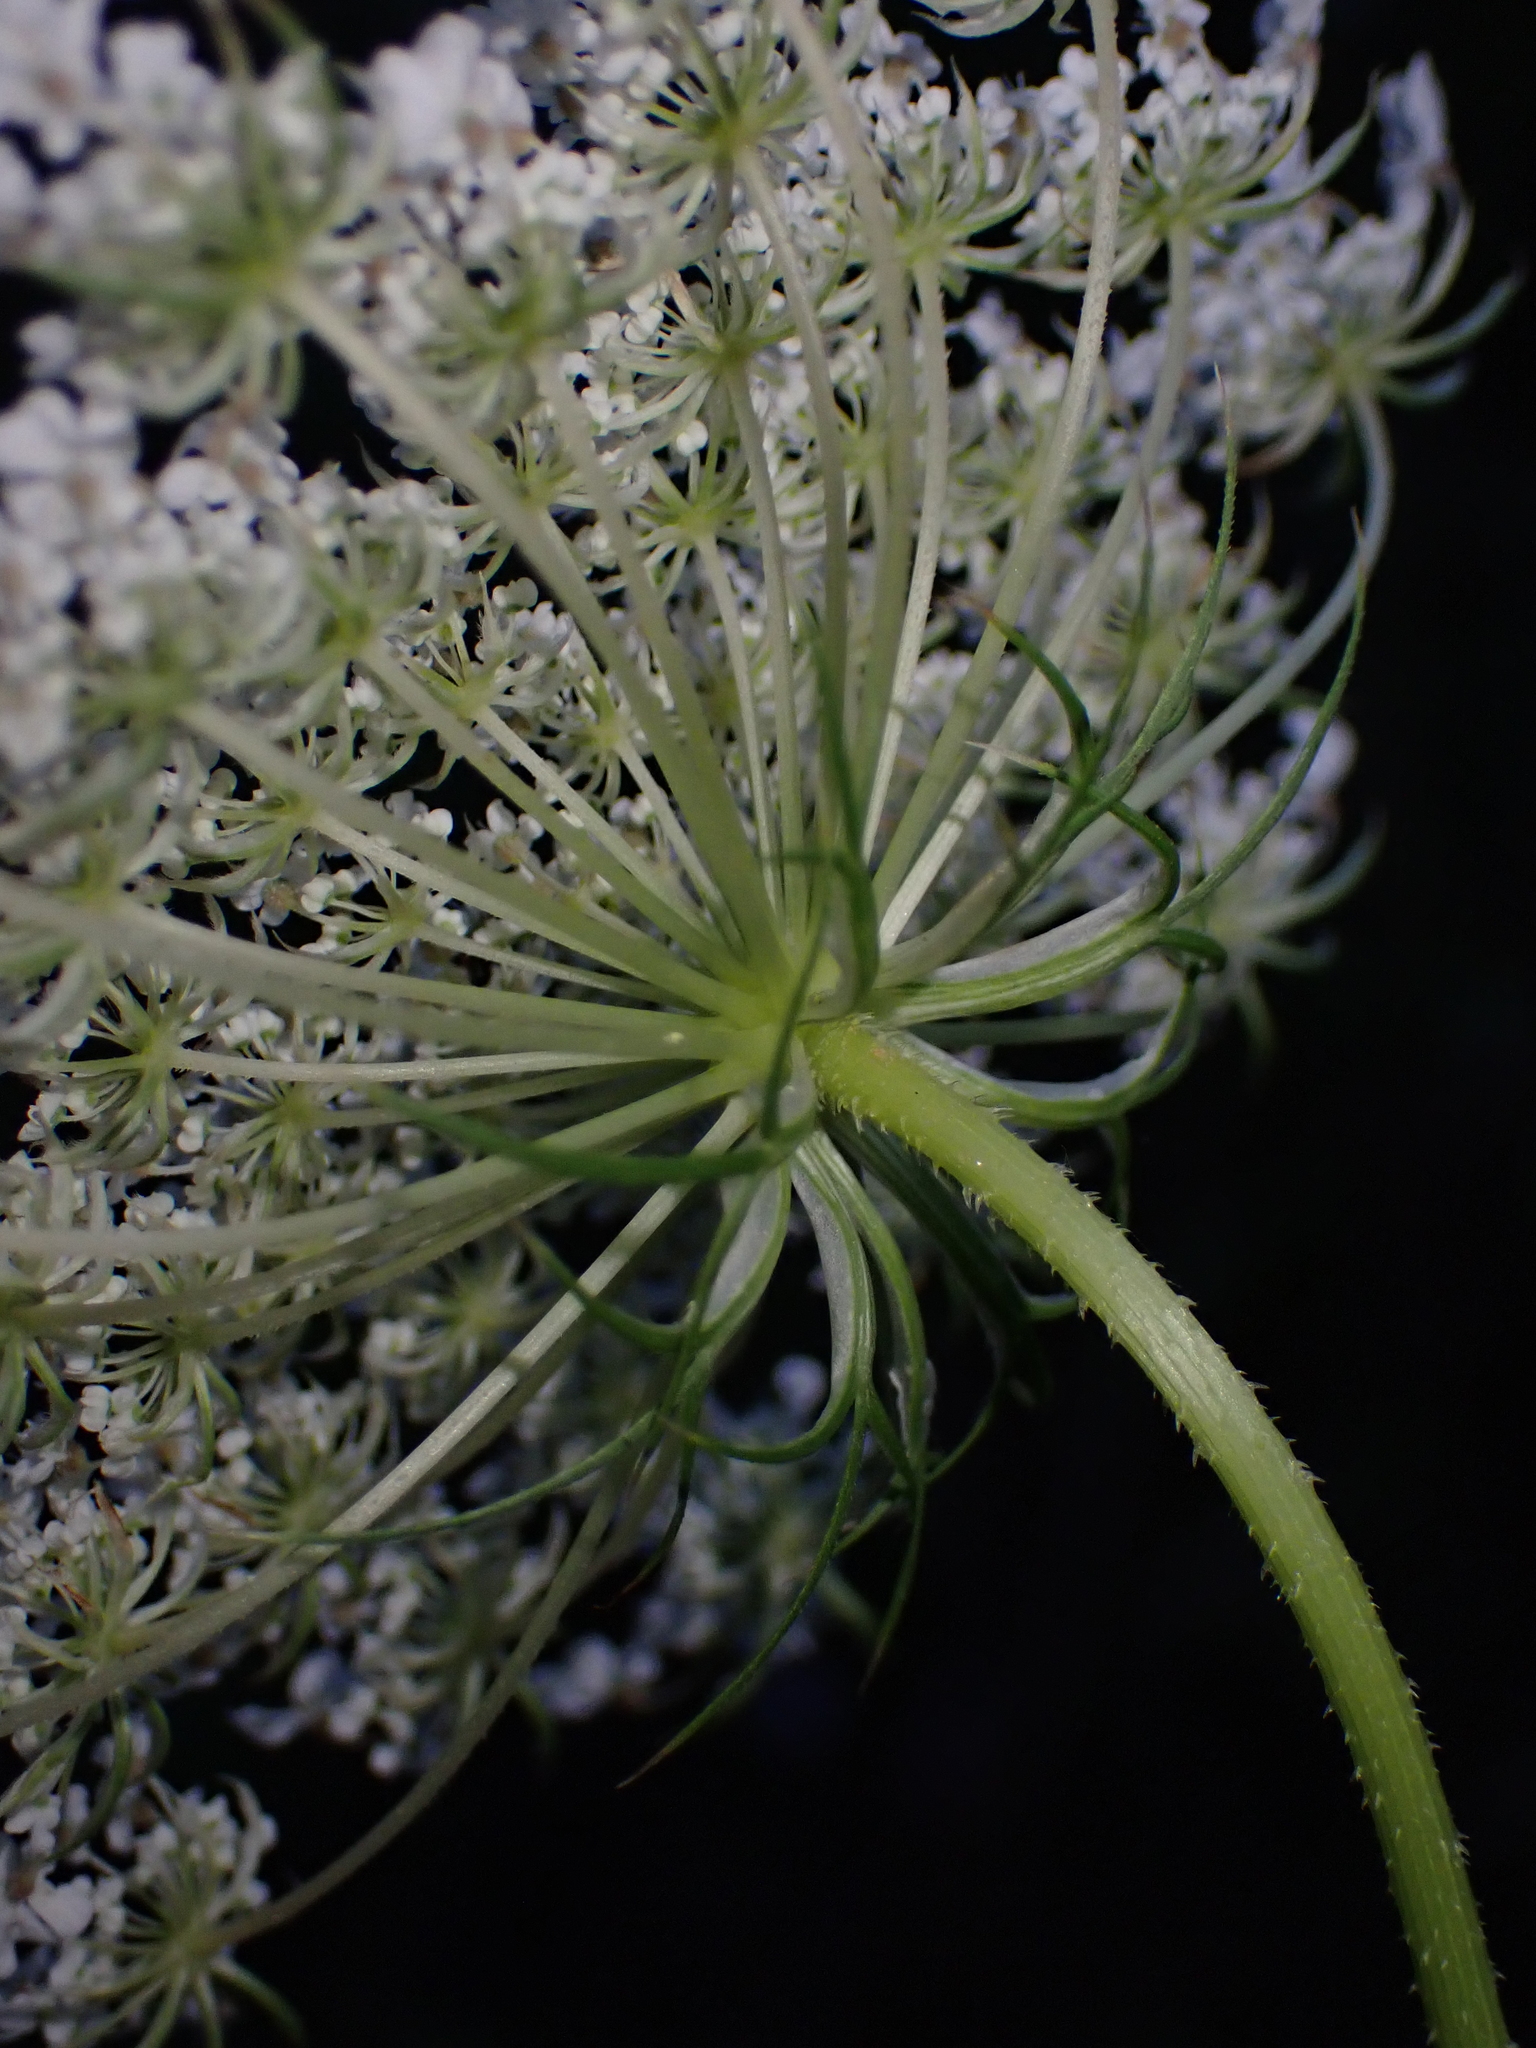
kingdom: Plantae
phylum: Tracheophyta
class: Magnoliopsida
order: Apiales
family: Apiaceae
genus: Daucus
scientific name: Daucus carota
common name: Wild carrot
